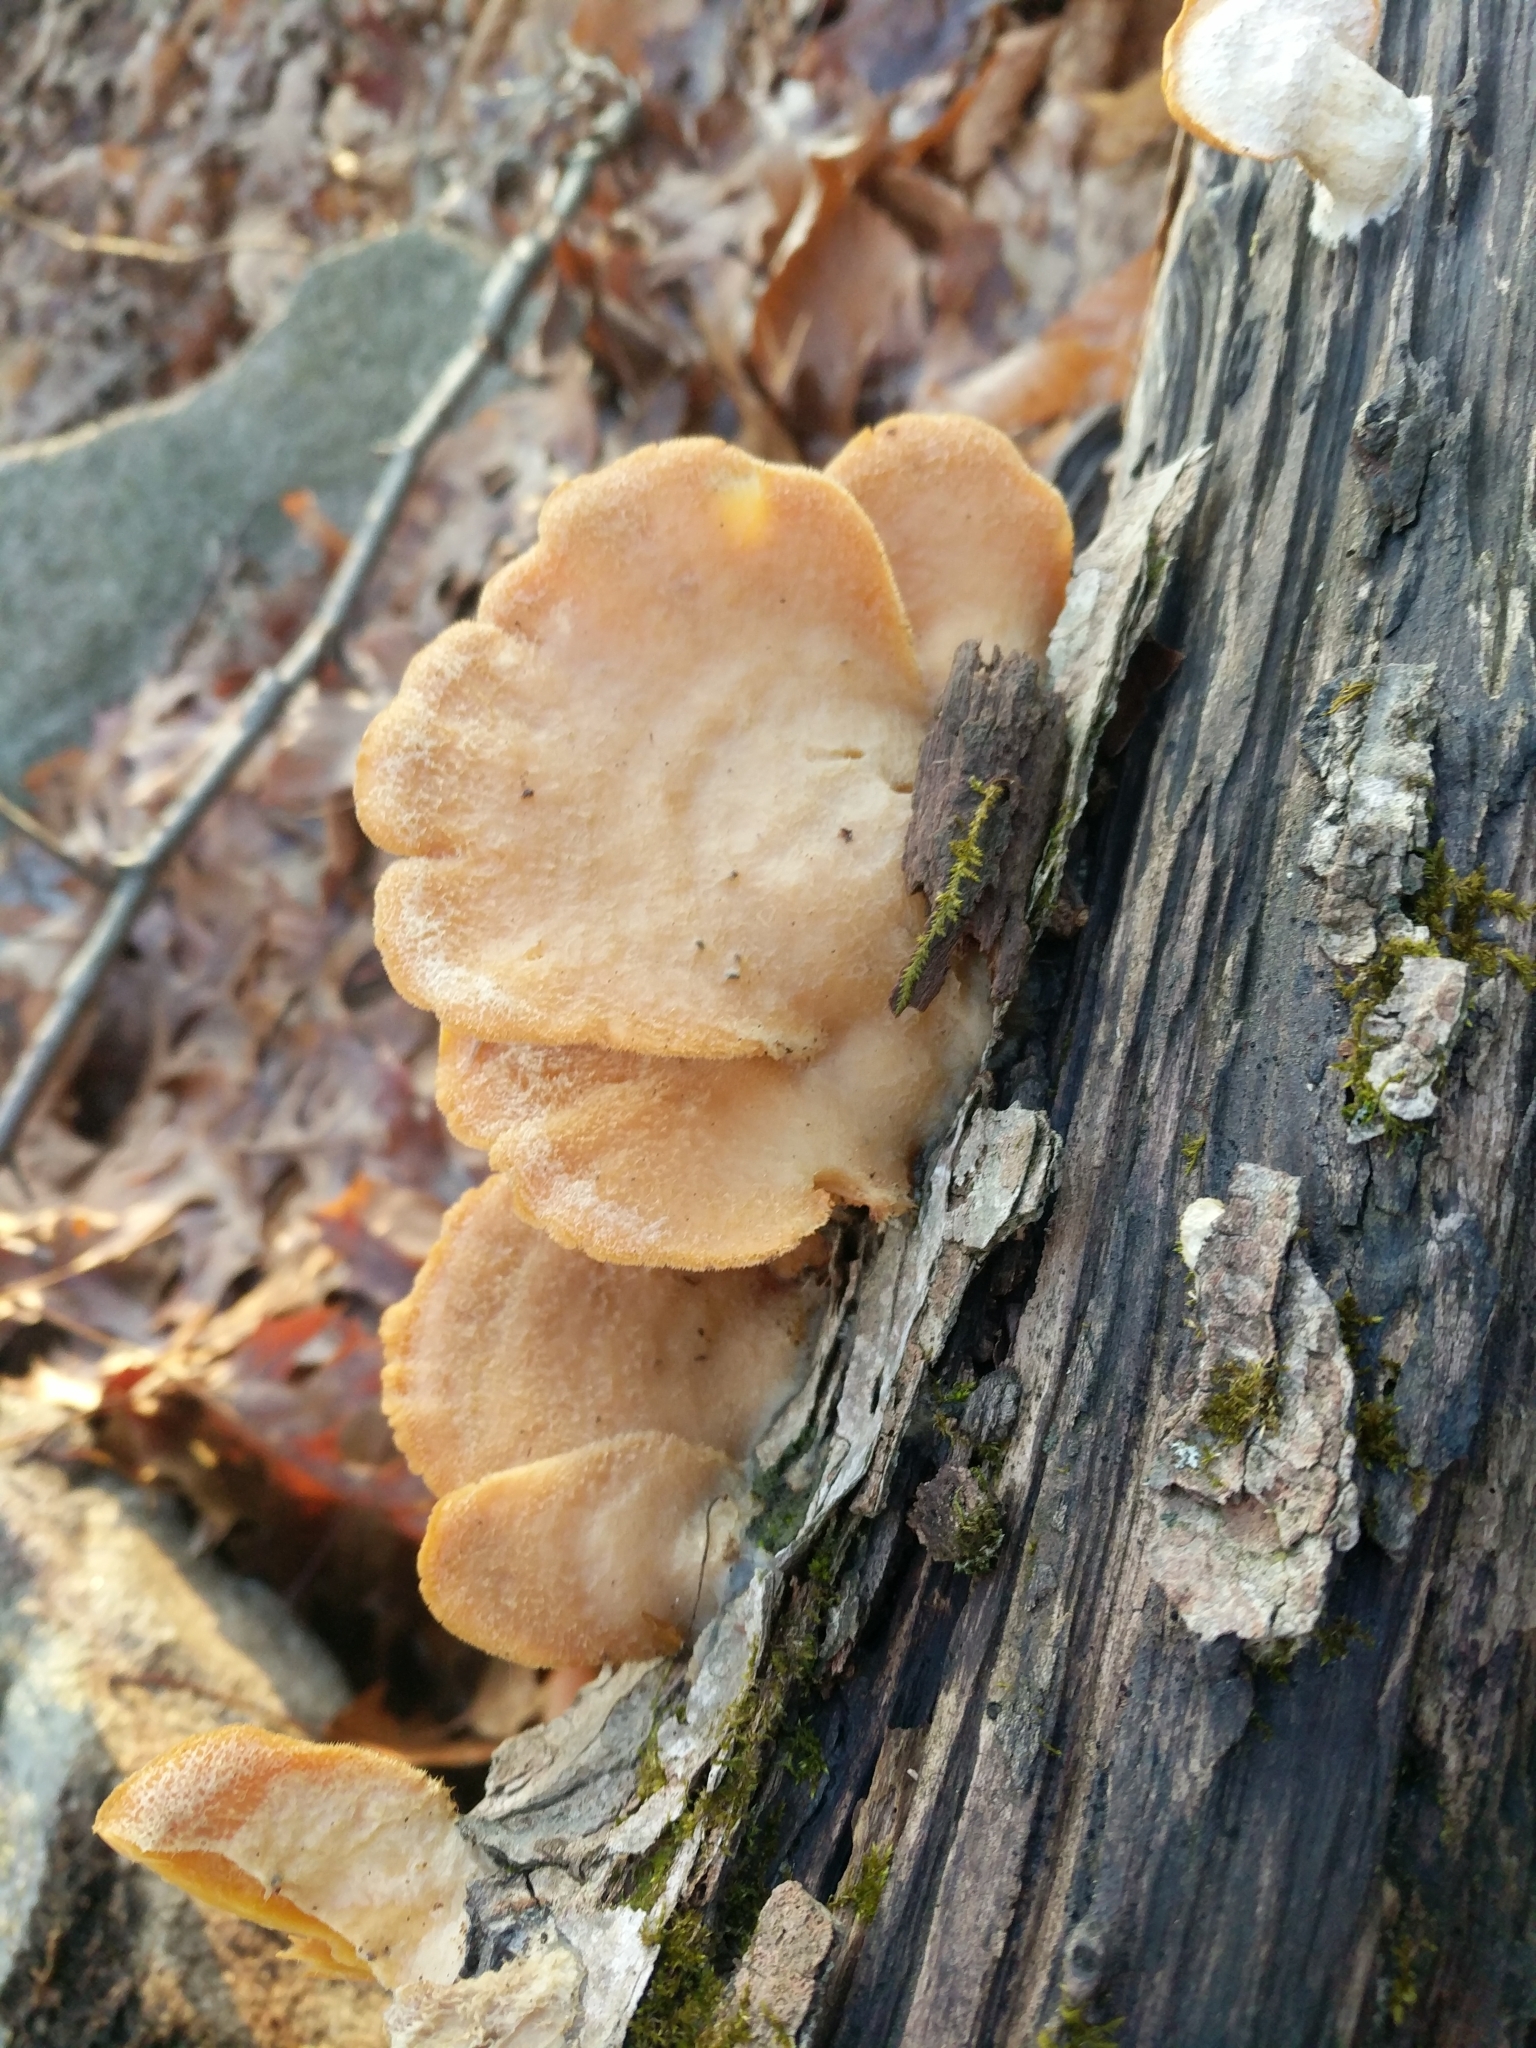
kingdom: Fungi
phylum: Basidiomycota
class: Agaricomycetes
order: Agaricales
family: Phyllotopsidaceae
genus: Phyllotopsis
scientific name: Phyllotopsis nidulans
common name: Orange mock oyster
